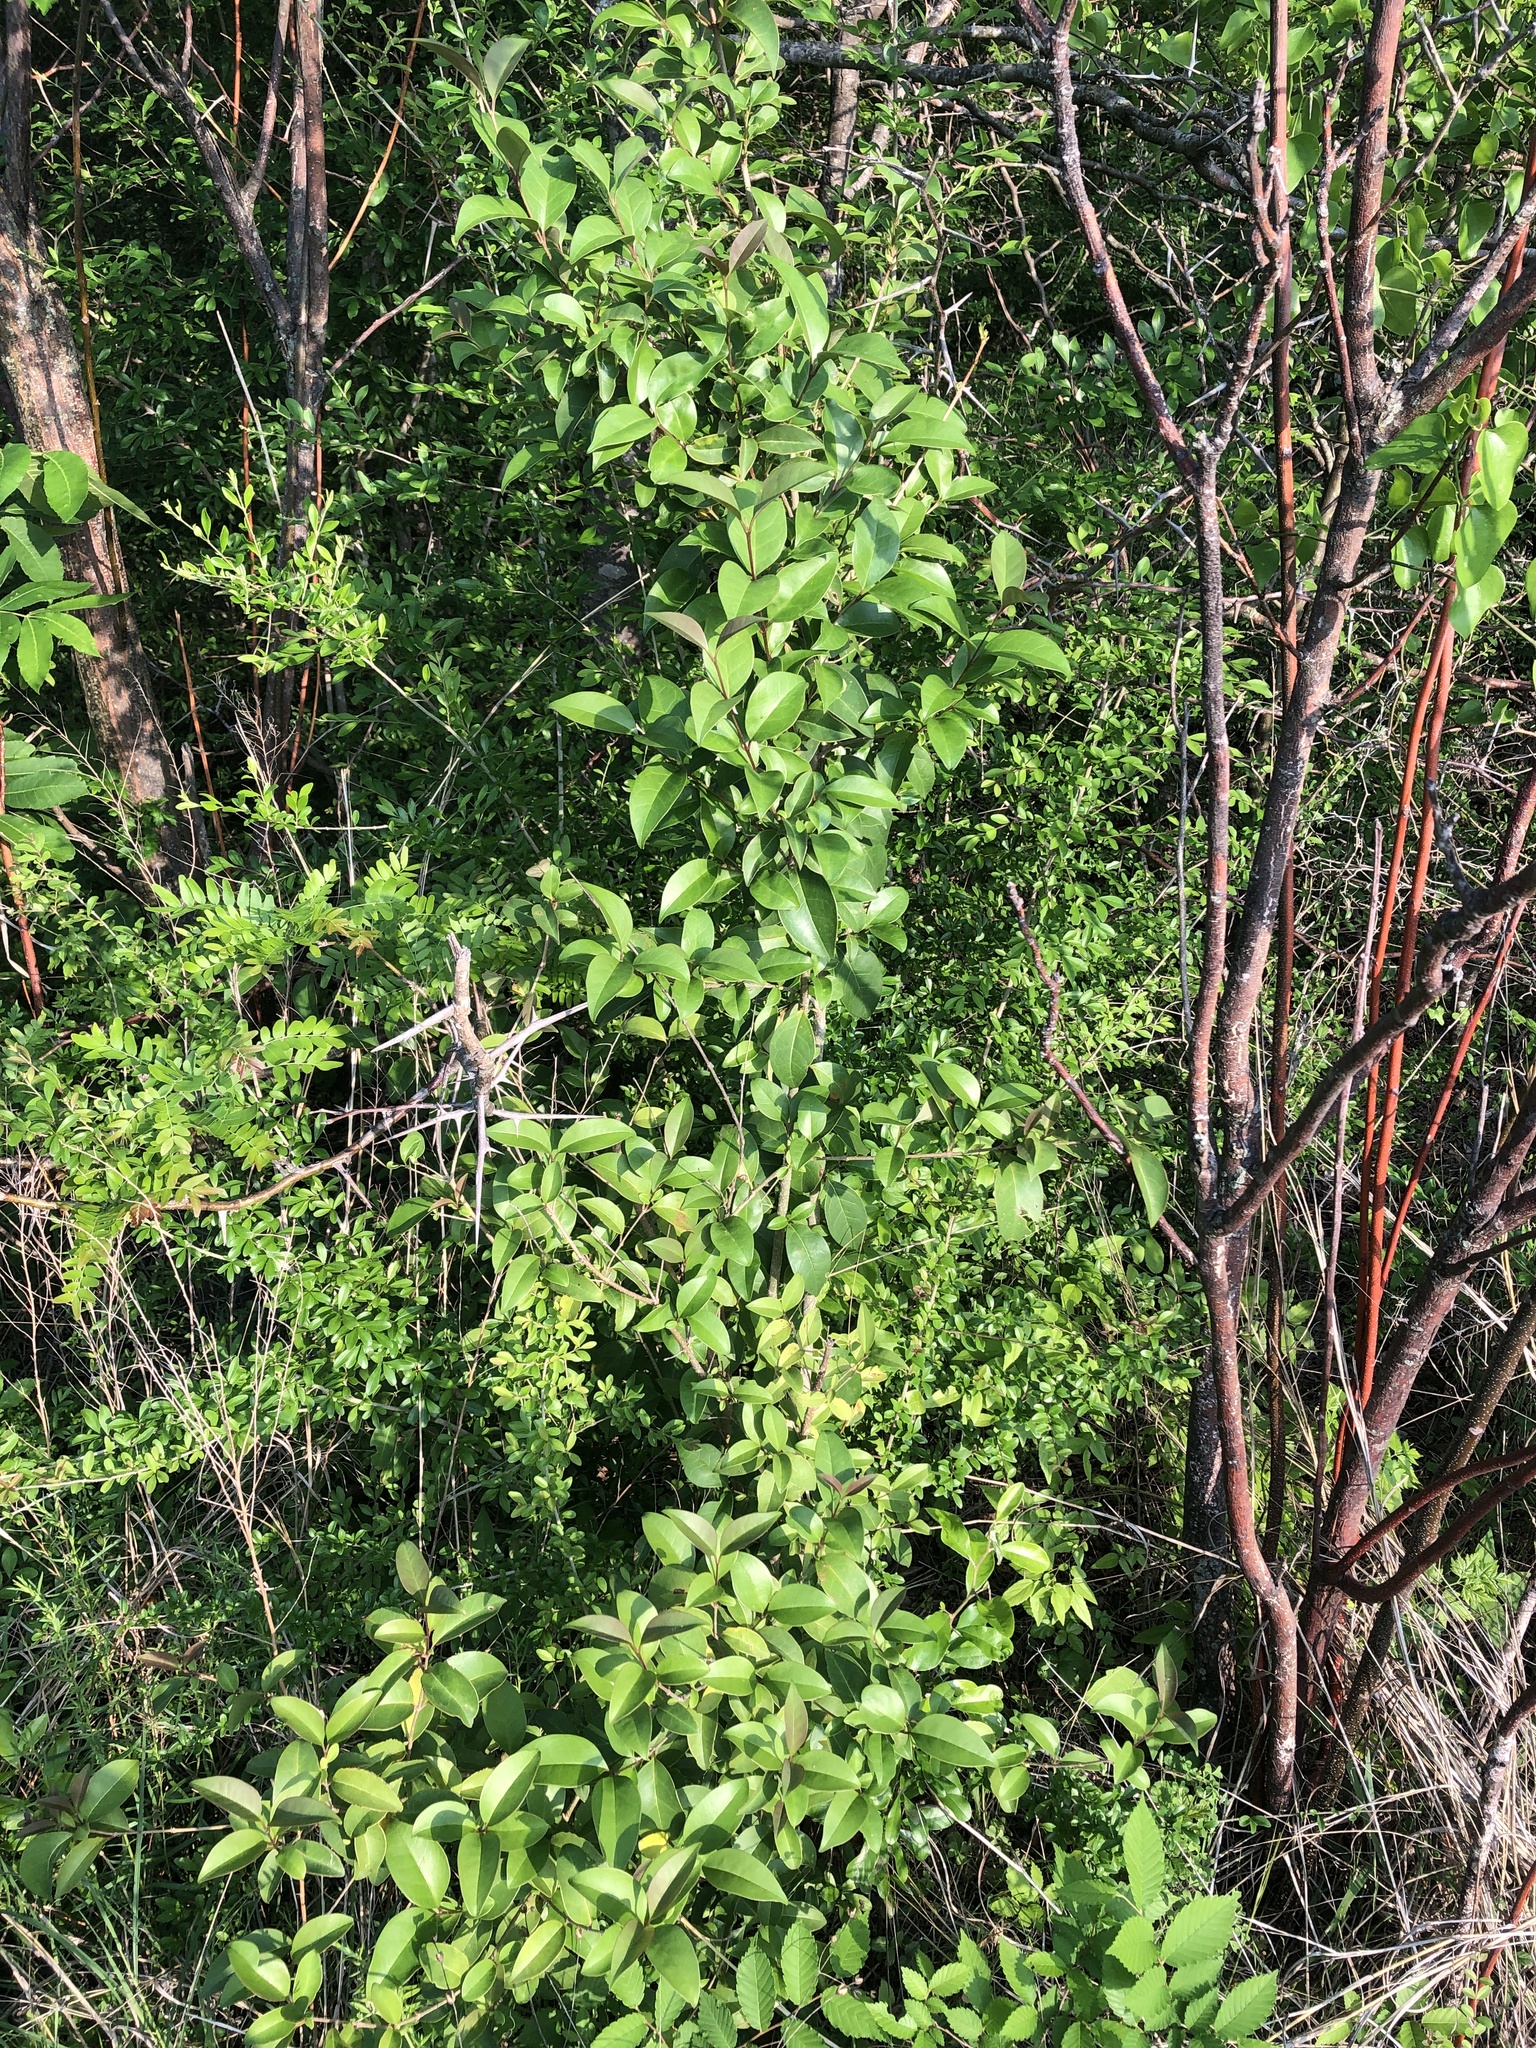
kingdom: Plantae
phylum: Tracheophyta
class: Magnoliopsida
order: Lamiales
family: Oleaceae
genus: Ligustrum
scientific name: Ligustrum lucidum
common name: Glossy privet
